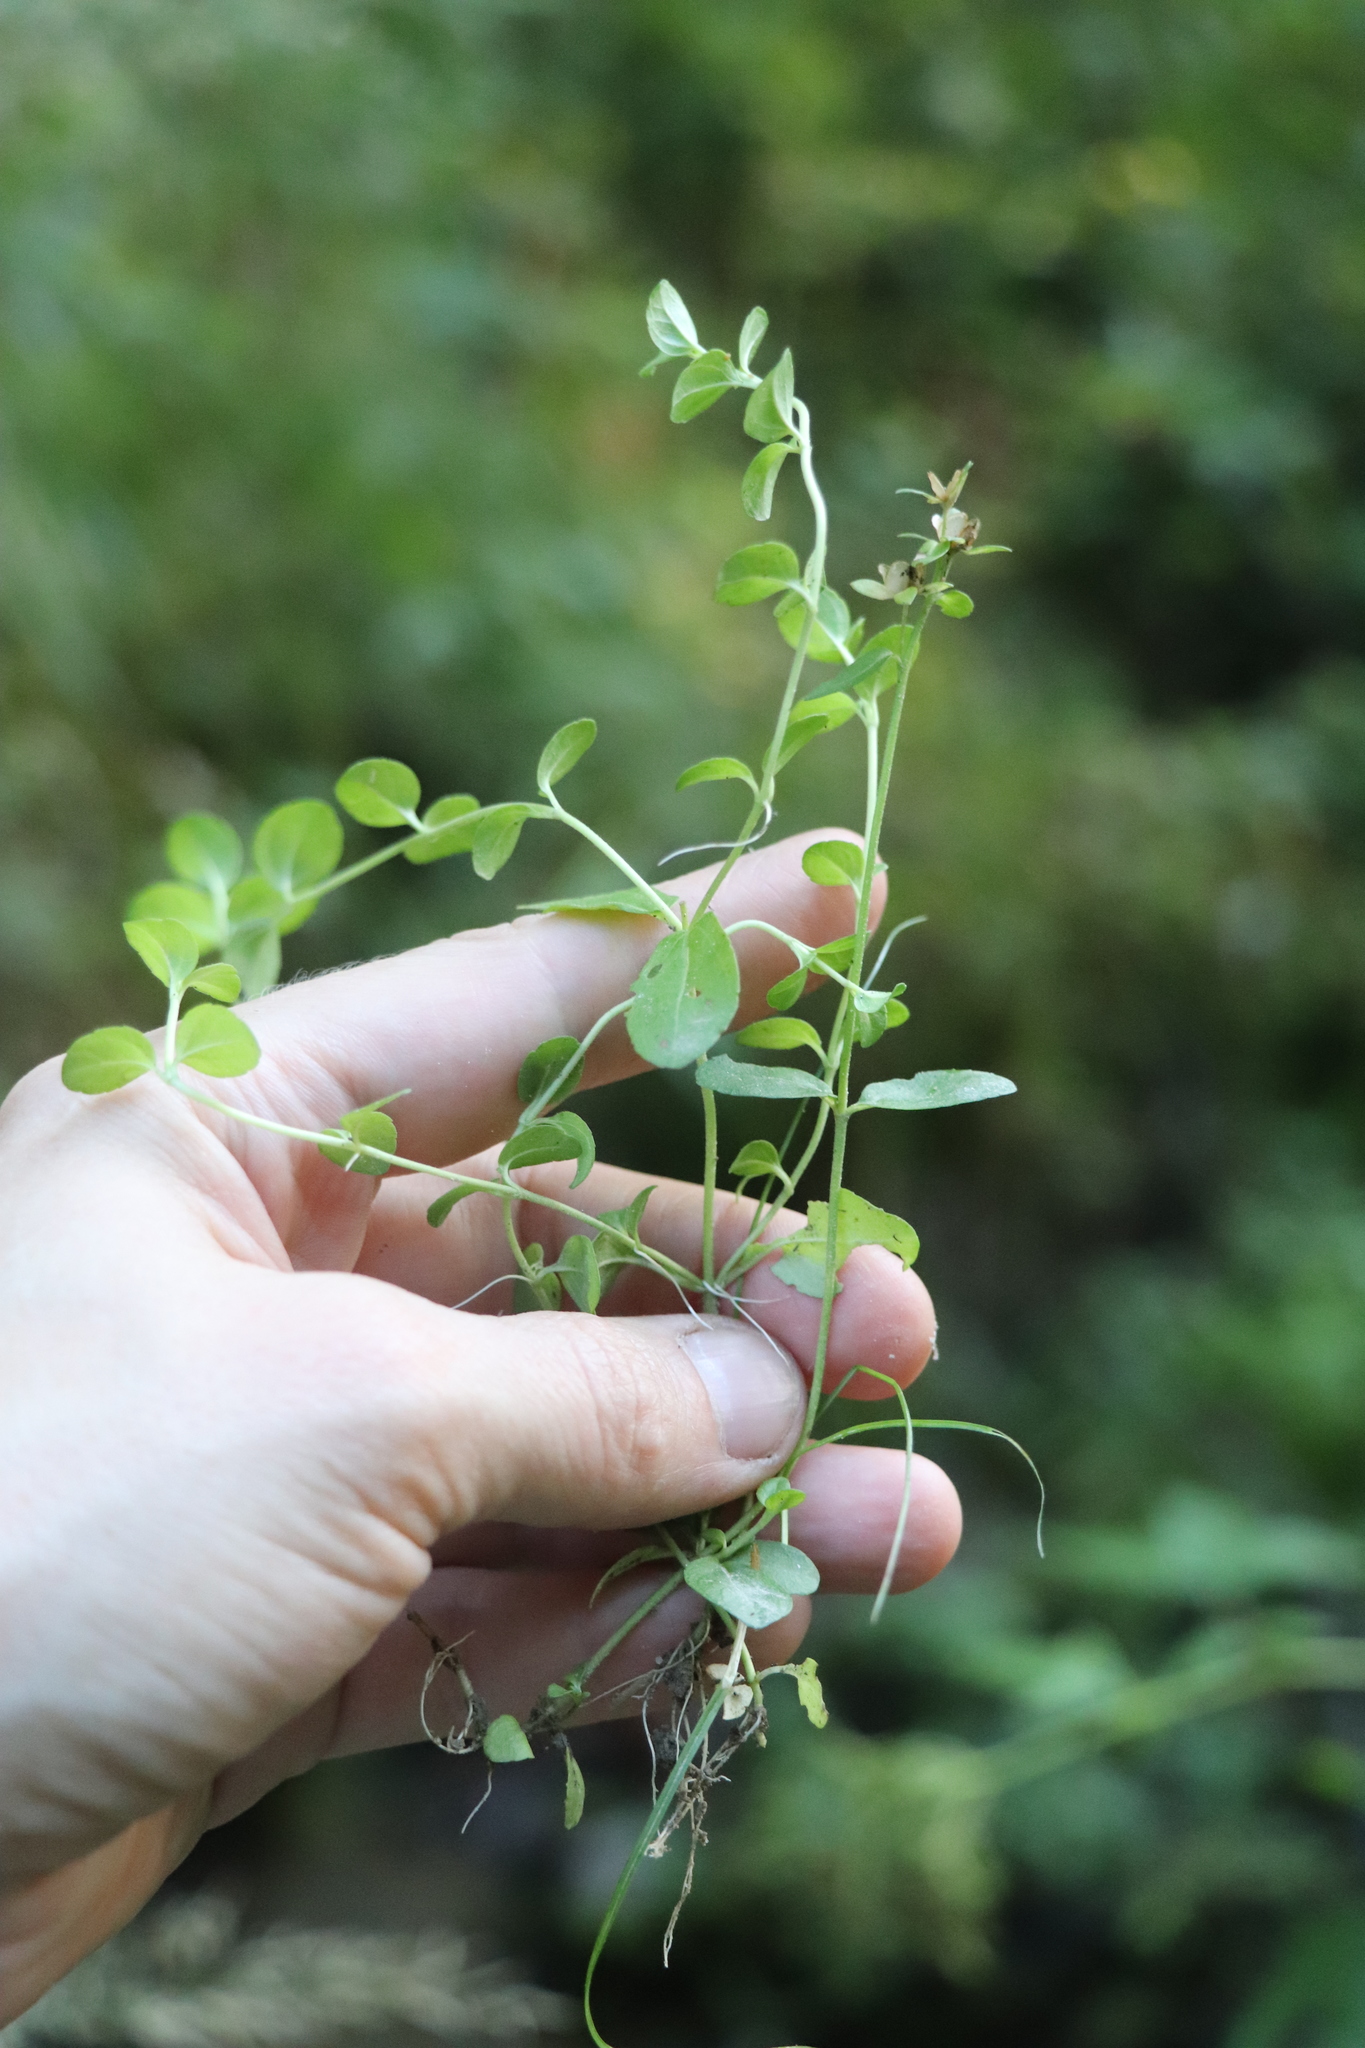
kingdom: Plantae
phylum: Tracheophyta
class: Magnoliopsida
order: Lamiales
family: Plantaginaceae
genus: Veronica
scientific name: Veronica serpyllifolia
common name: Thyme-leaved speedwell
